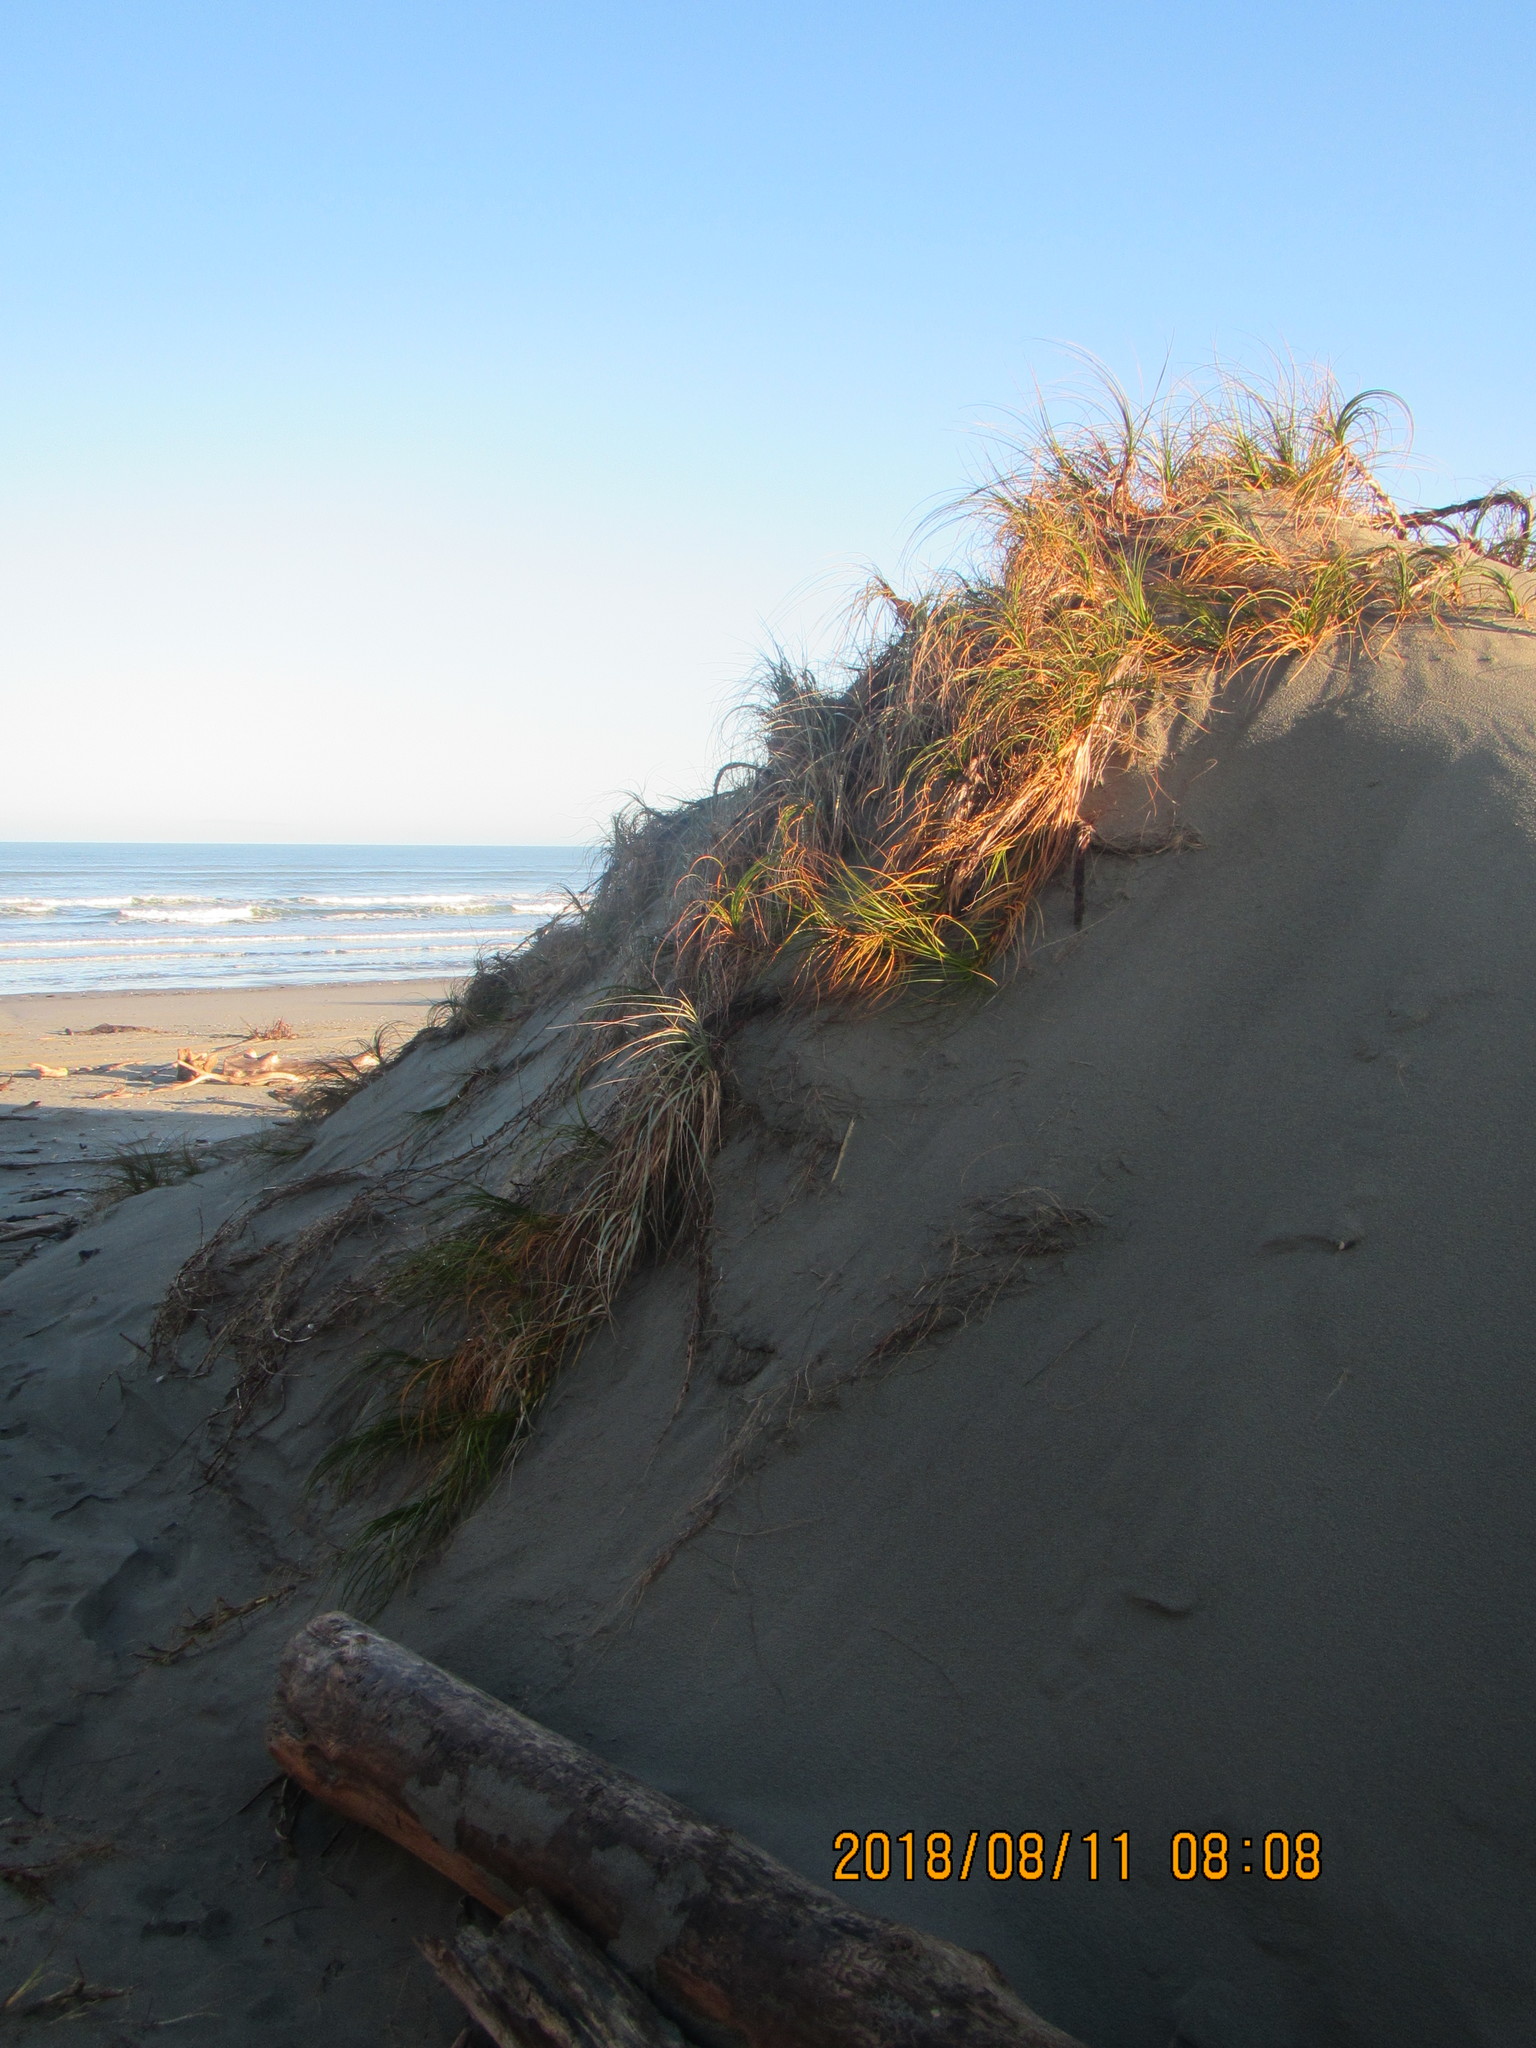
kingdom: Plantae
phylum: Tracheophyta
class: Liliopsida
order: Poales
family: Cyperaceae
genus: Ficinia
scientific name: Ficinia spiralis
